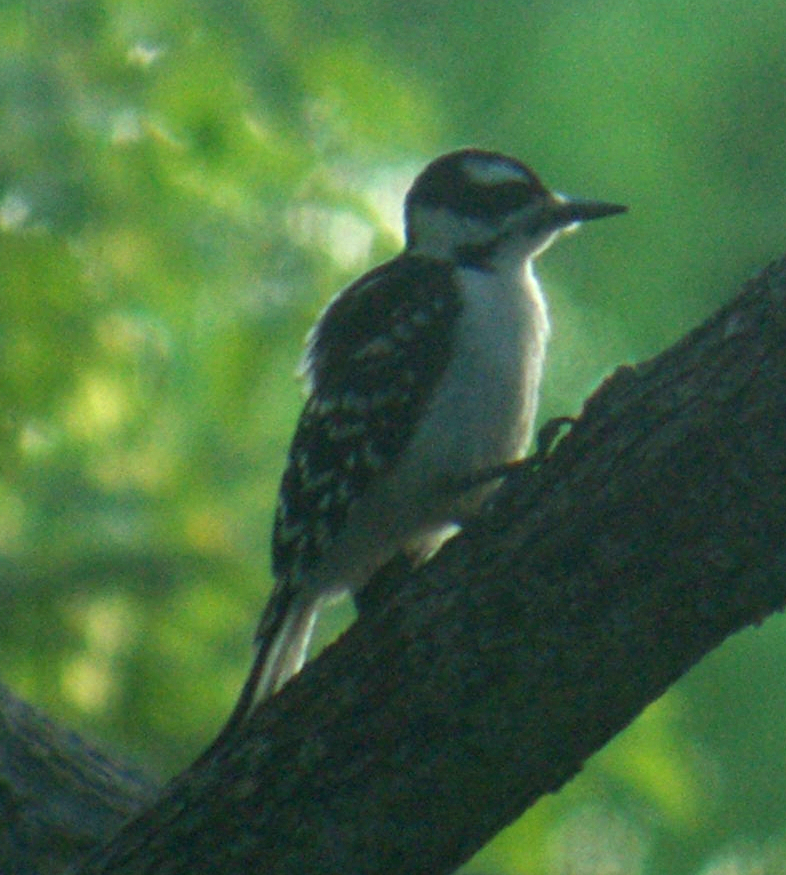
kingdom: Animalia
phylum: Chordata
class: Aves
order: Piciformes
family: Picidae
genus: Leuconotopicus
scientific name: Leuconotopicus villosus
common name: Hairy woodpecker
